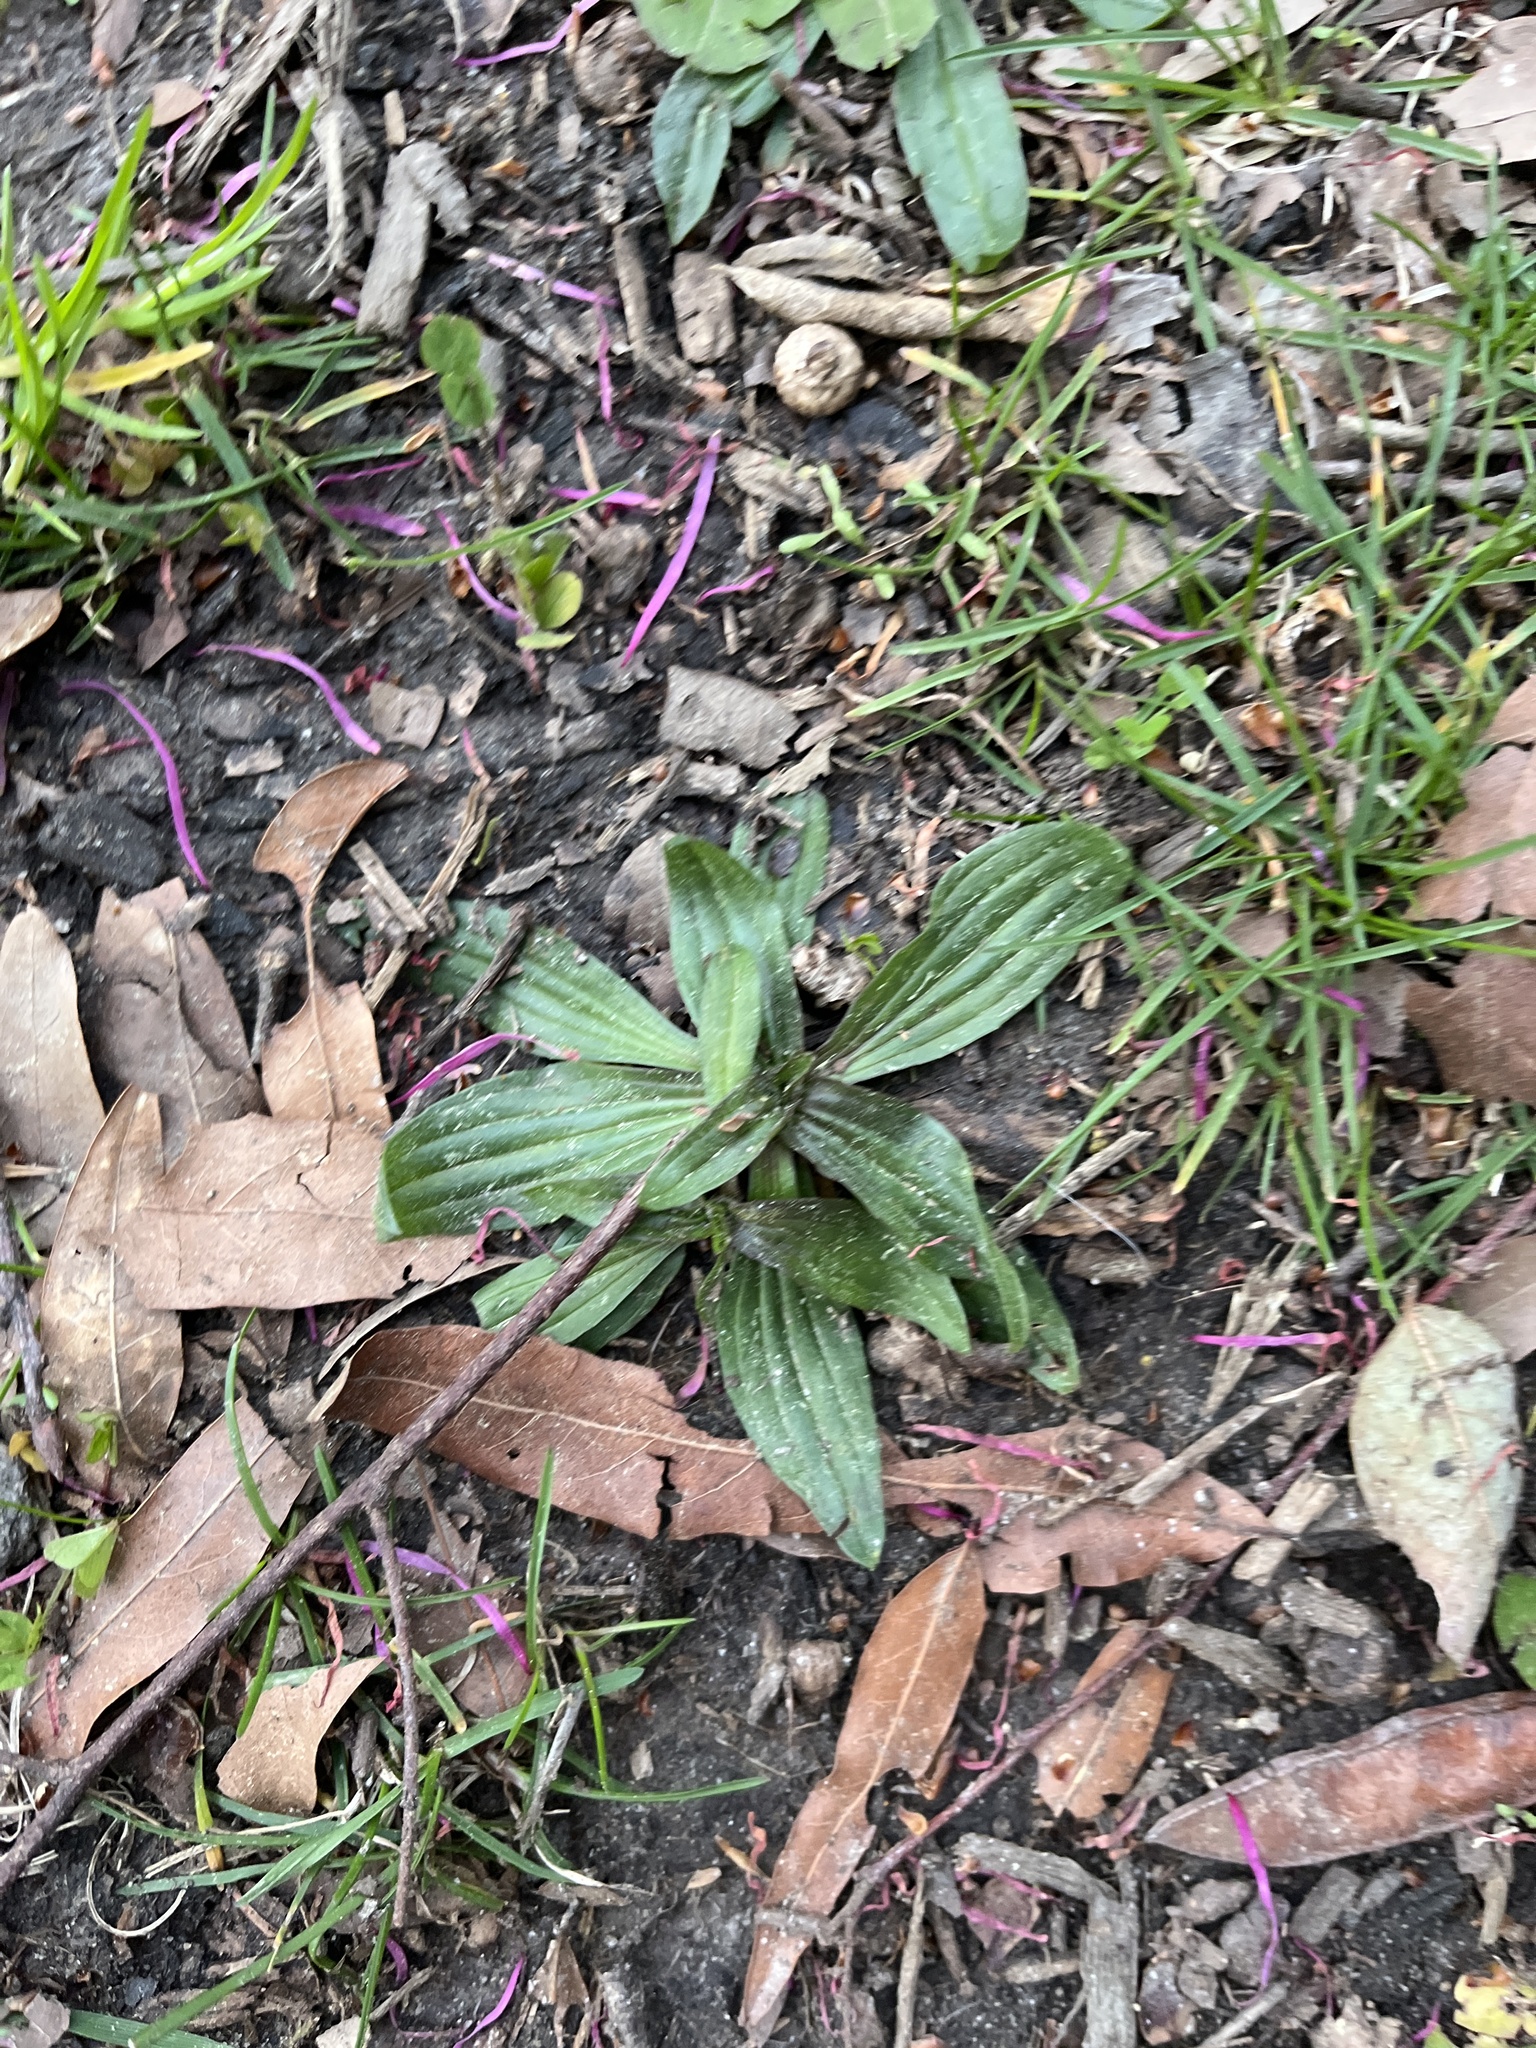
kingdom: Plantae
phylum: Tracheophyta
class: Magnoliopsida
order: Lamiales
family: Plantaginaceae
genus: Plantago
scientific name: Plantago lanceolata
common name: Ribwort plantain
